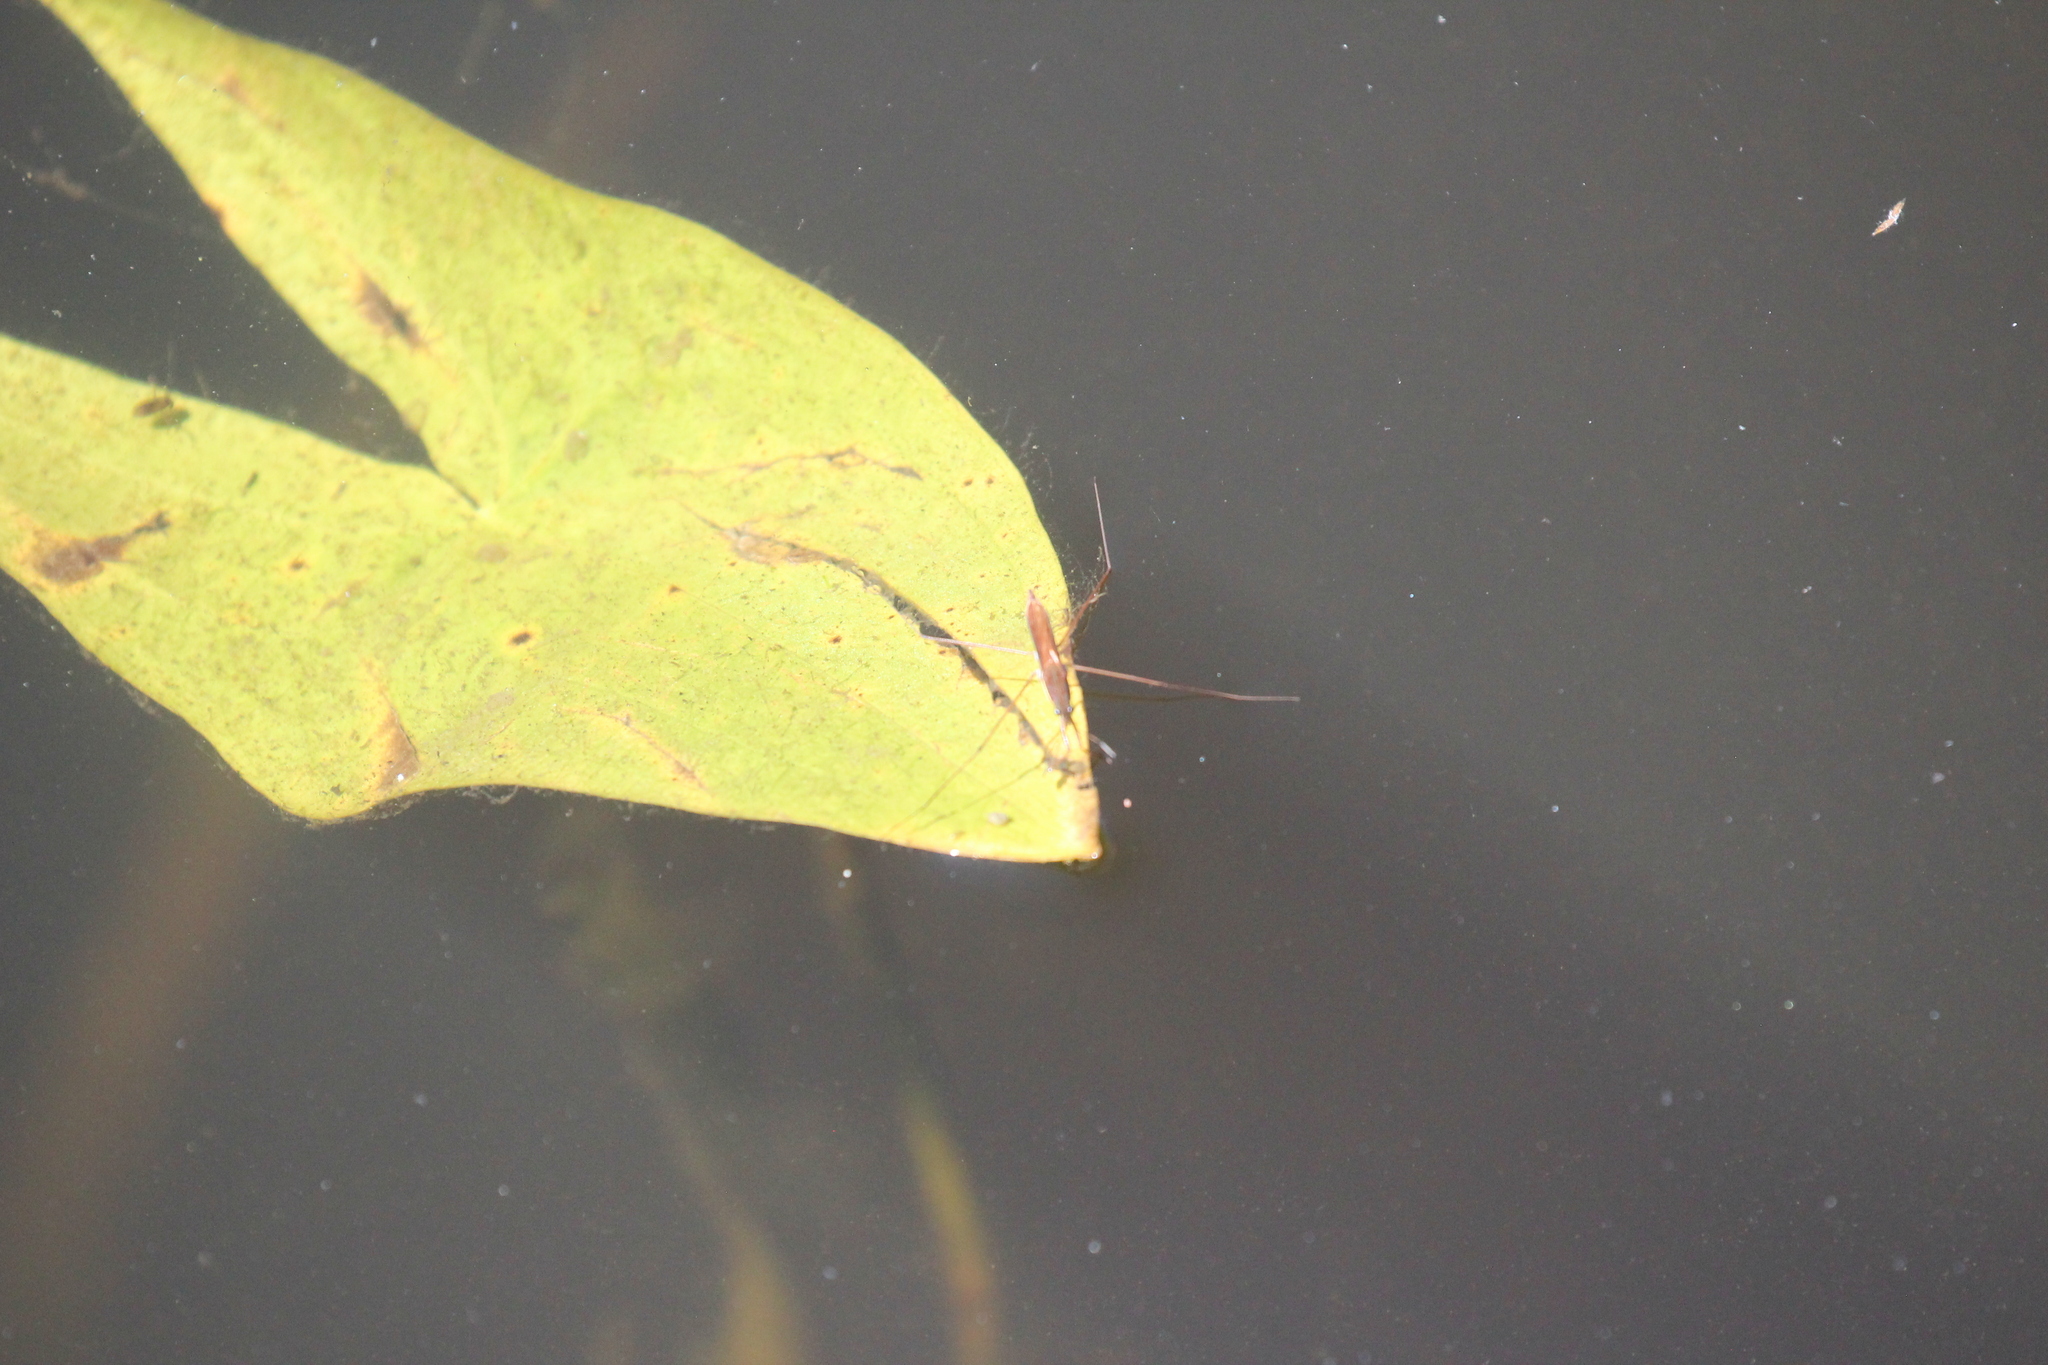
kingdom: Animalia
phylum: Arthropoda
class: Insecta
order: Hemiptera
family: Gerridae
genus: Limnoporus
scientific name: Limnoporus dissortis
